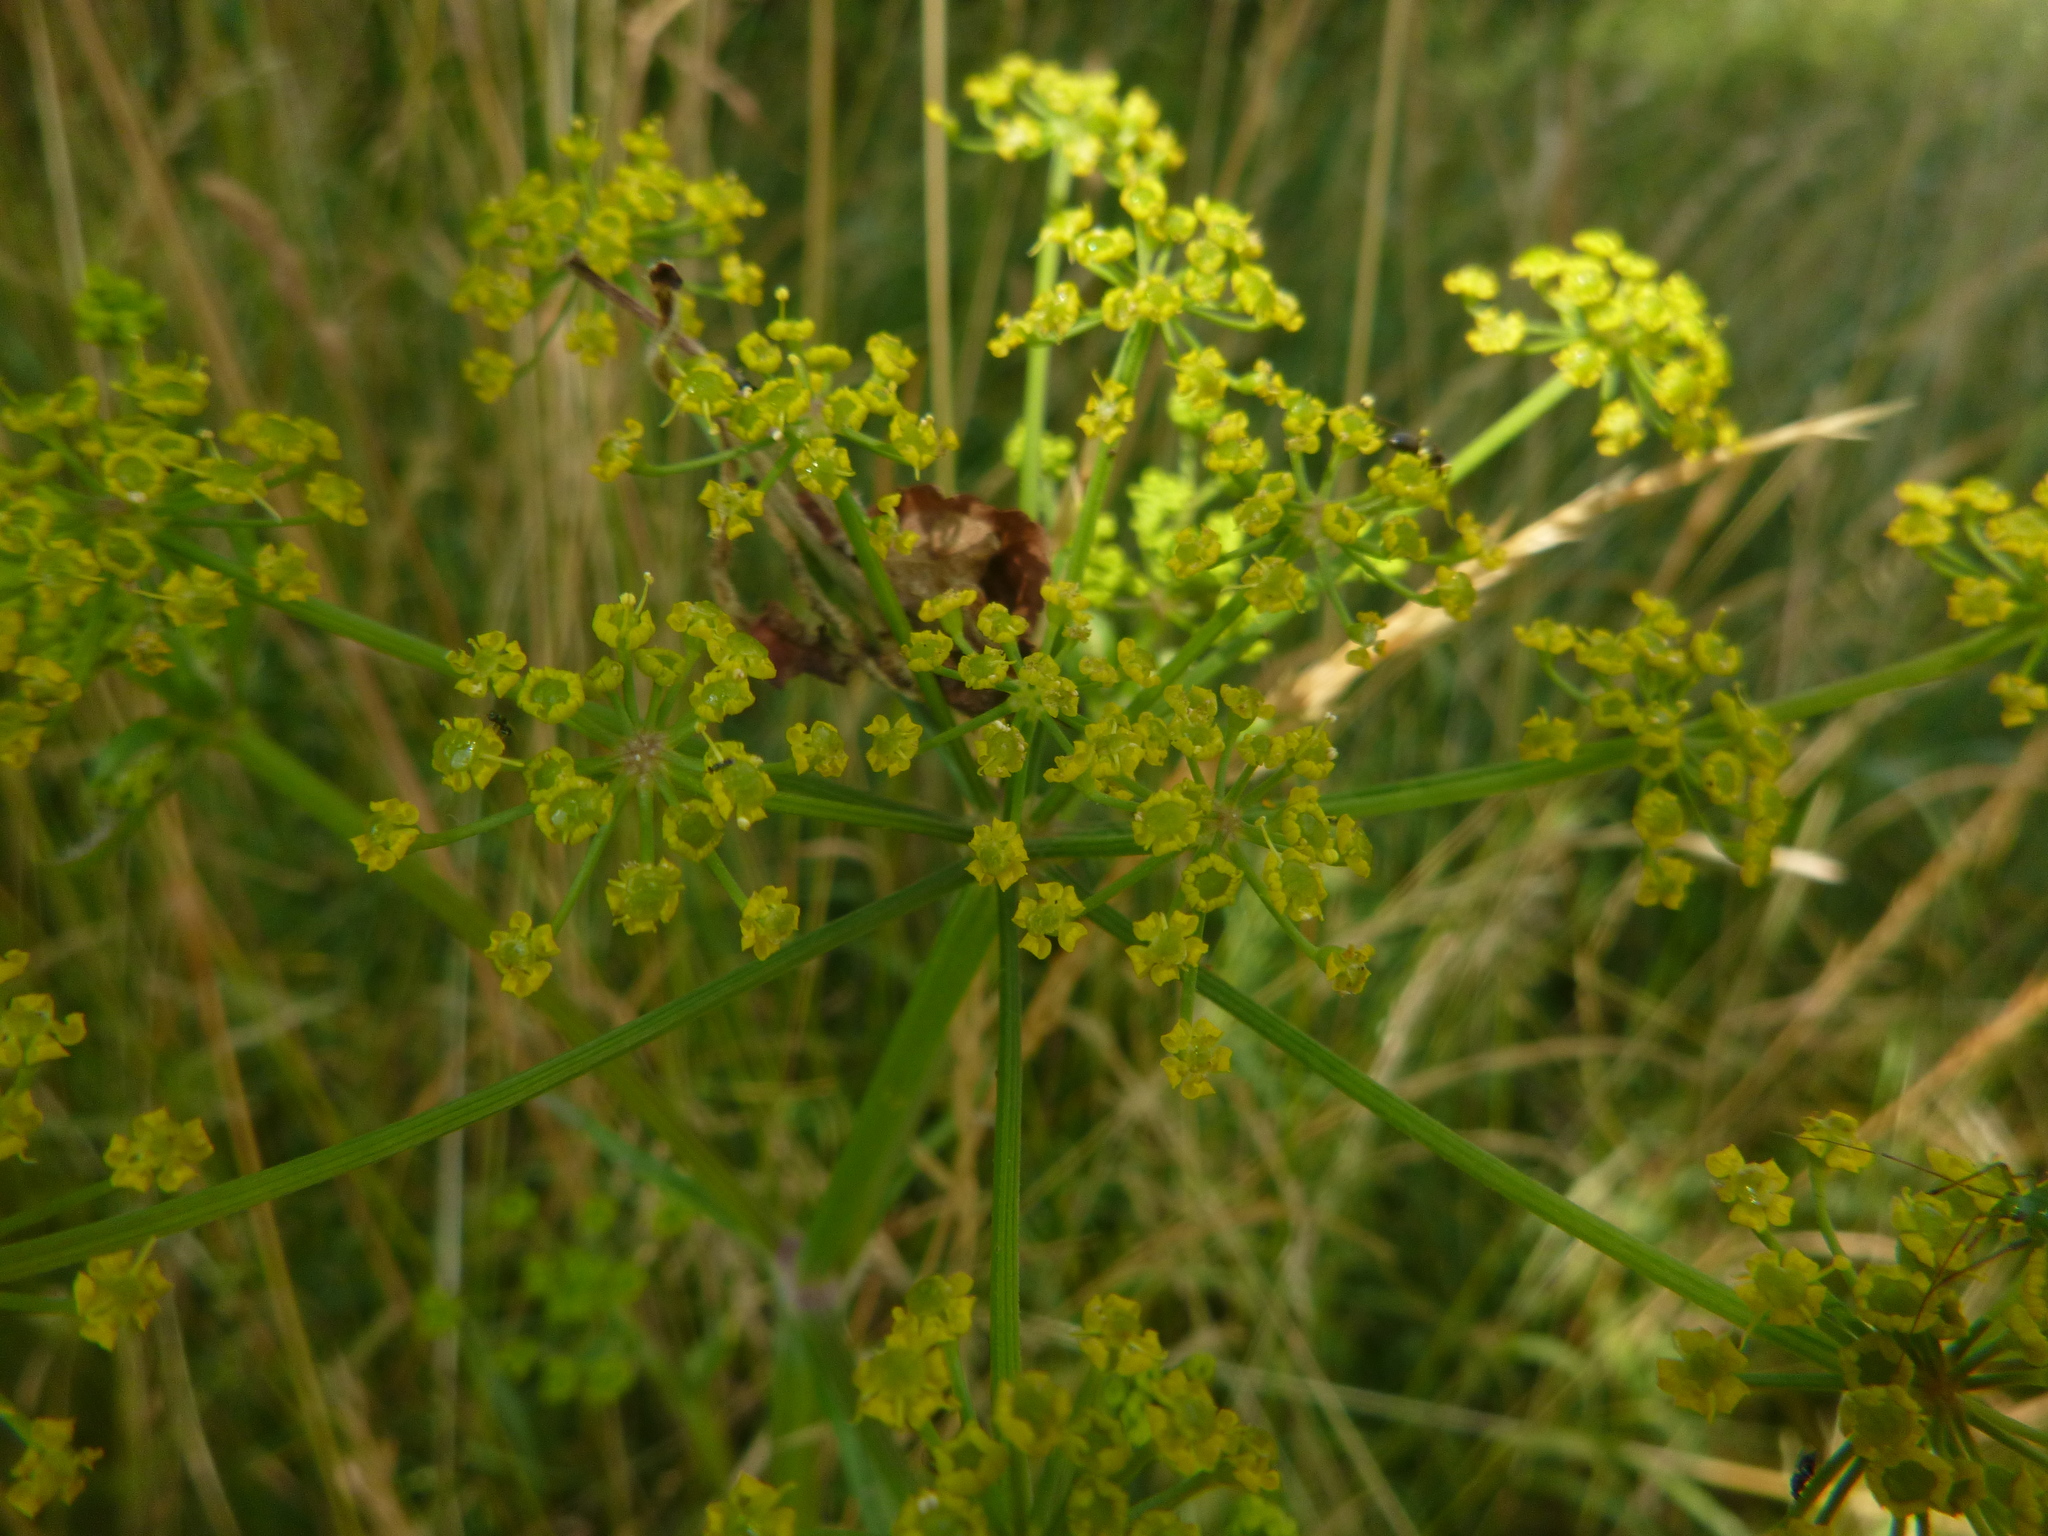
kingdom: Plantae
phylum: Tracheophyta
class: Magnoliopsida
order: Apiales
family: Apiaceae
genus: Pastinaca
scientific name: Pastinaca sativa
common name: Wild parsnip
